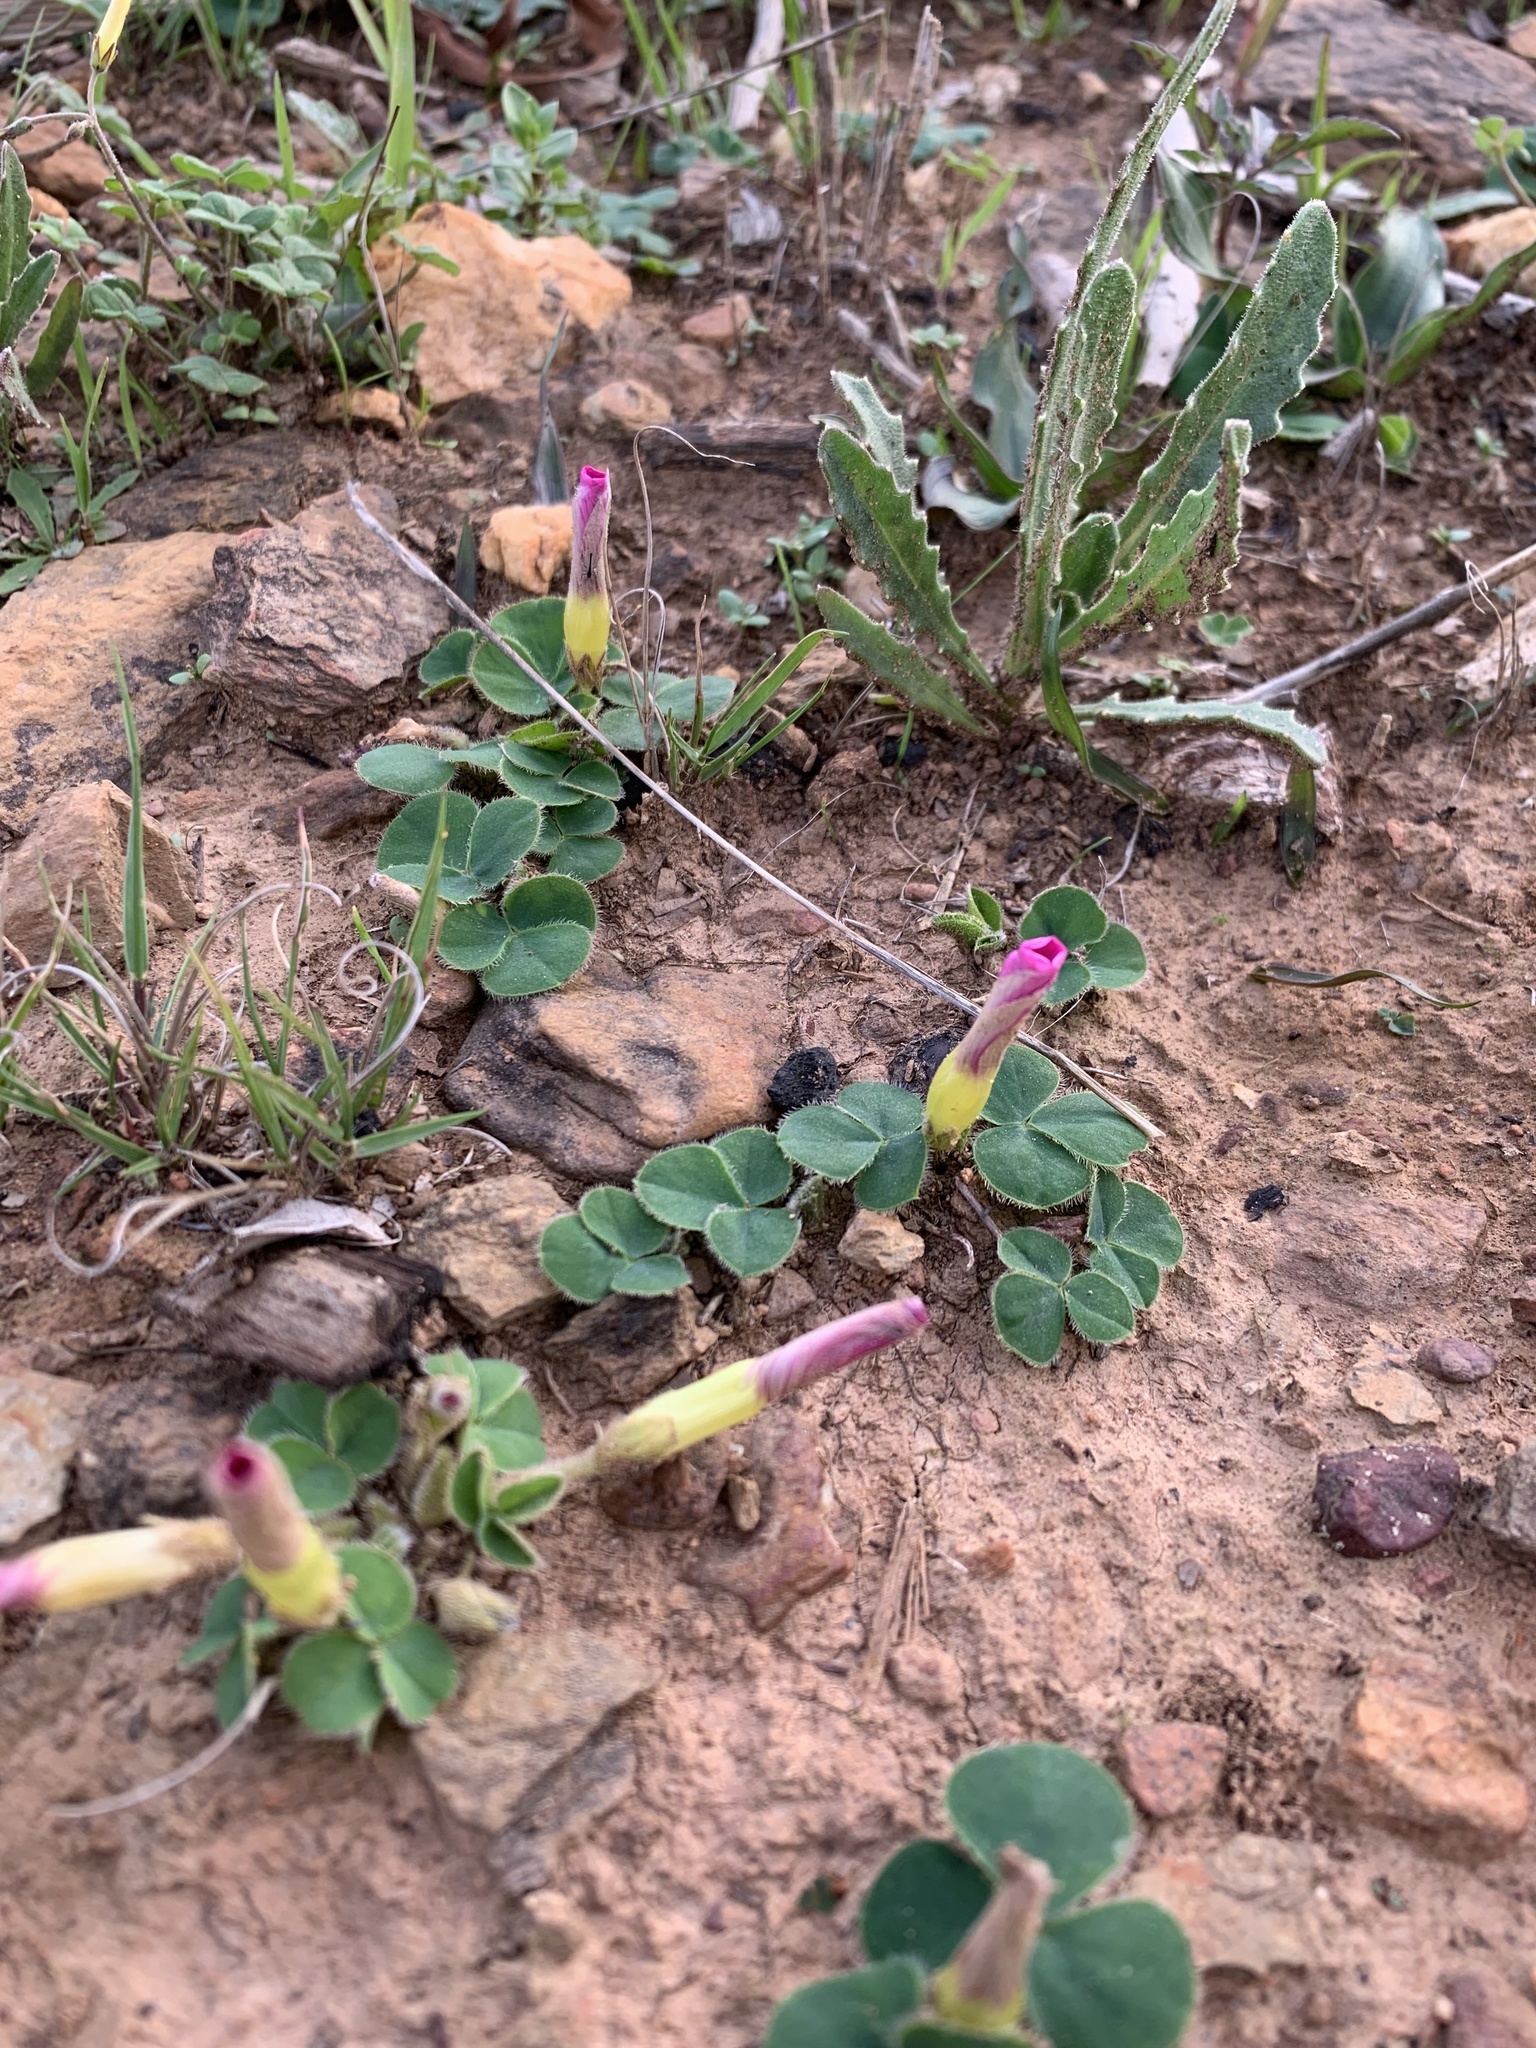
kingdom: Plantae
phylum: Tracheophyta
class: Magnoliopsida
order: Oxalidales
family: Oxalidaceae
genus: Oxalis
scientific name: Oxalis purpurea
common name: Purple woodsorrel
